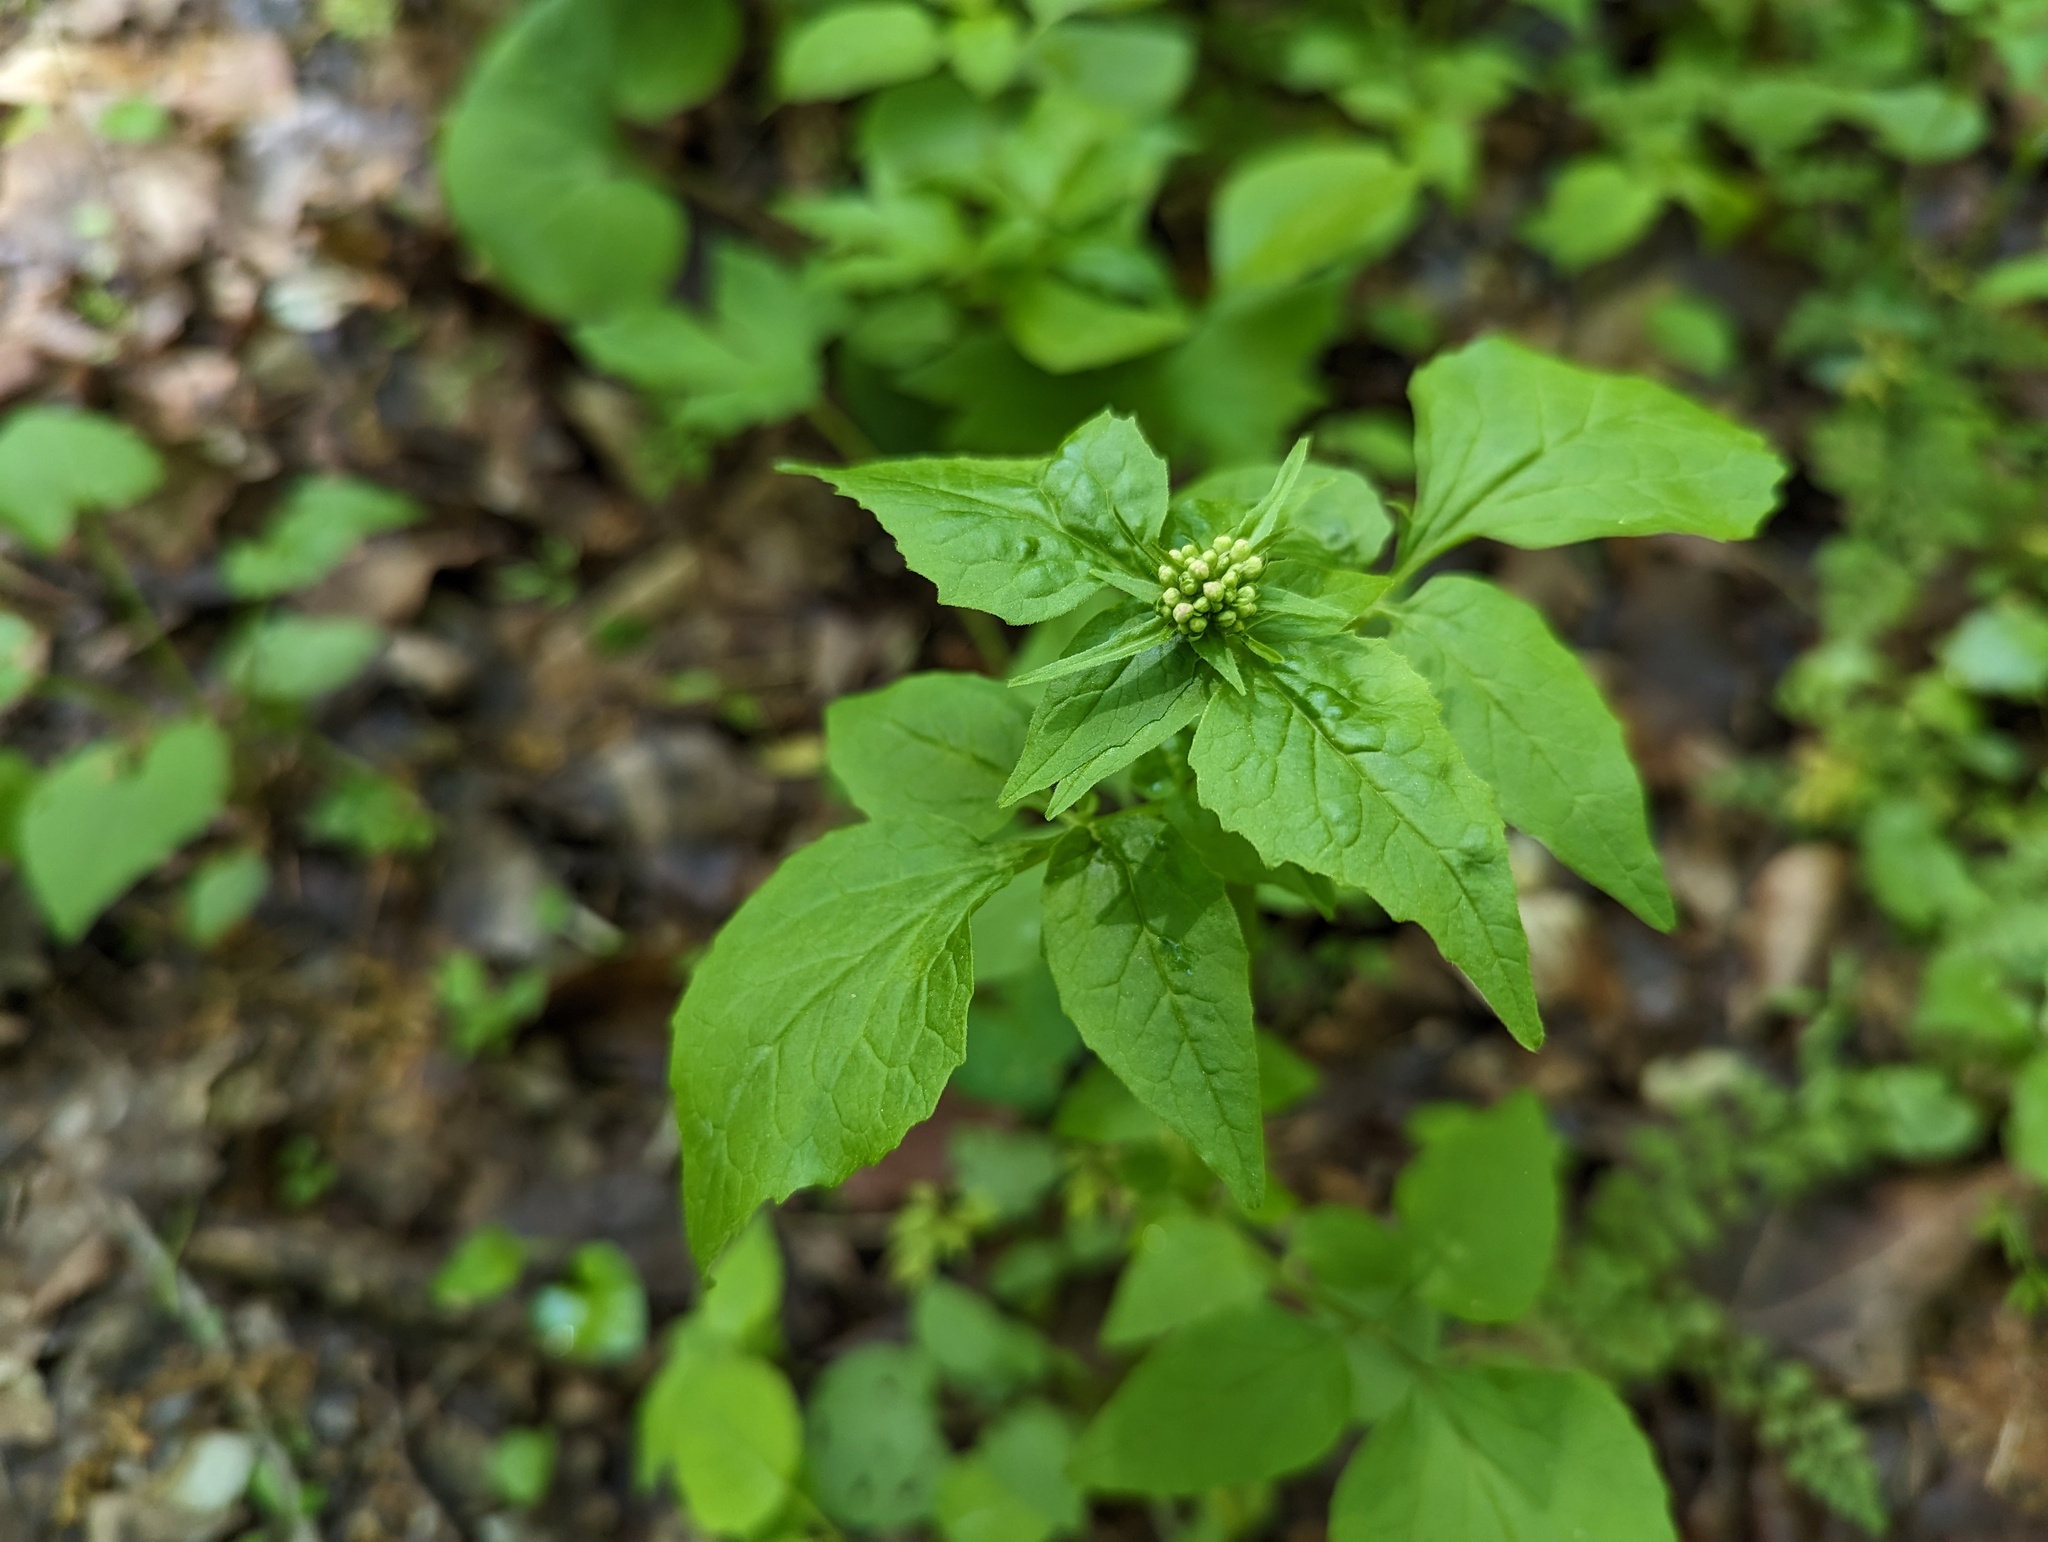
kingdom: Plantae
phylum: Tracheophyta
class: Magnoliopsida
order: Dipsacales
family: Caprifoliaceae
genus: Valeriana
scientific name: Valeriana pauciflora
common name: Long-tube valeriana
